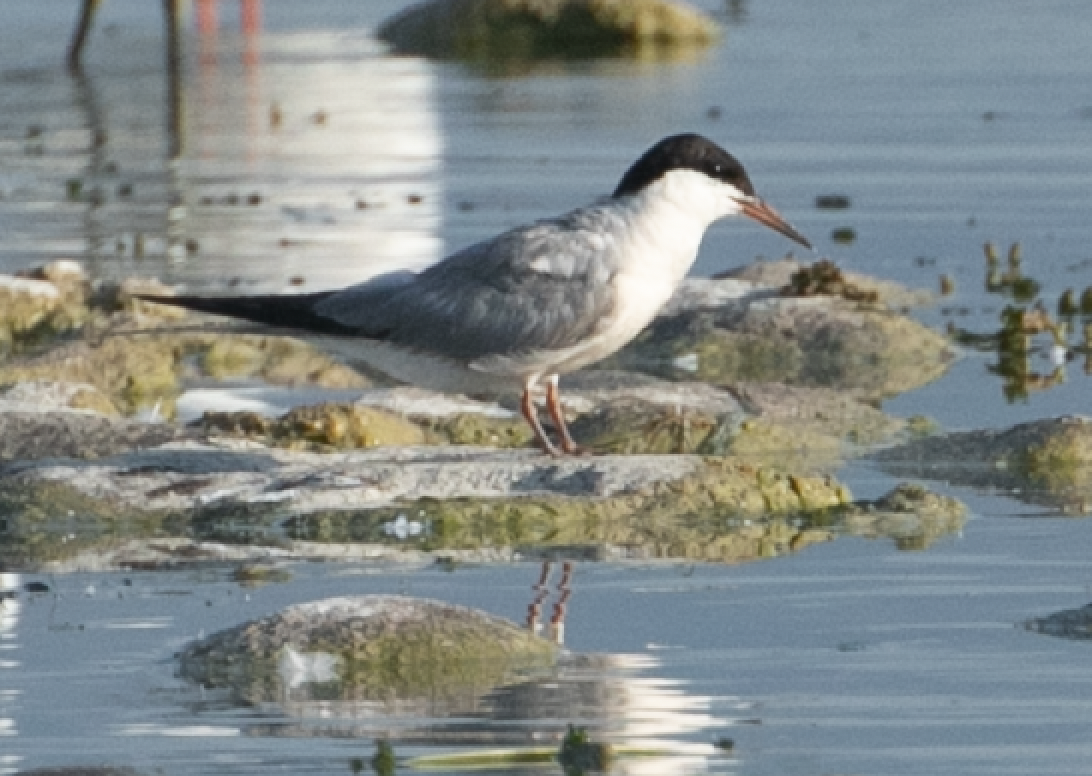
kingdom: Animalia
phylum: Chordata
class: Aves
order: Charadriiformes
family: Laridae
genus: Sterna
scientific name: Sterna hirundo
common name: Common tern
